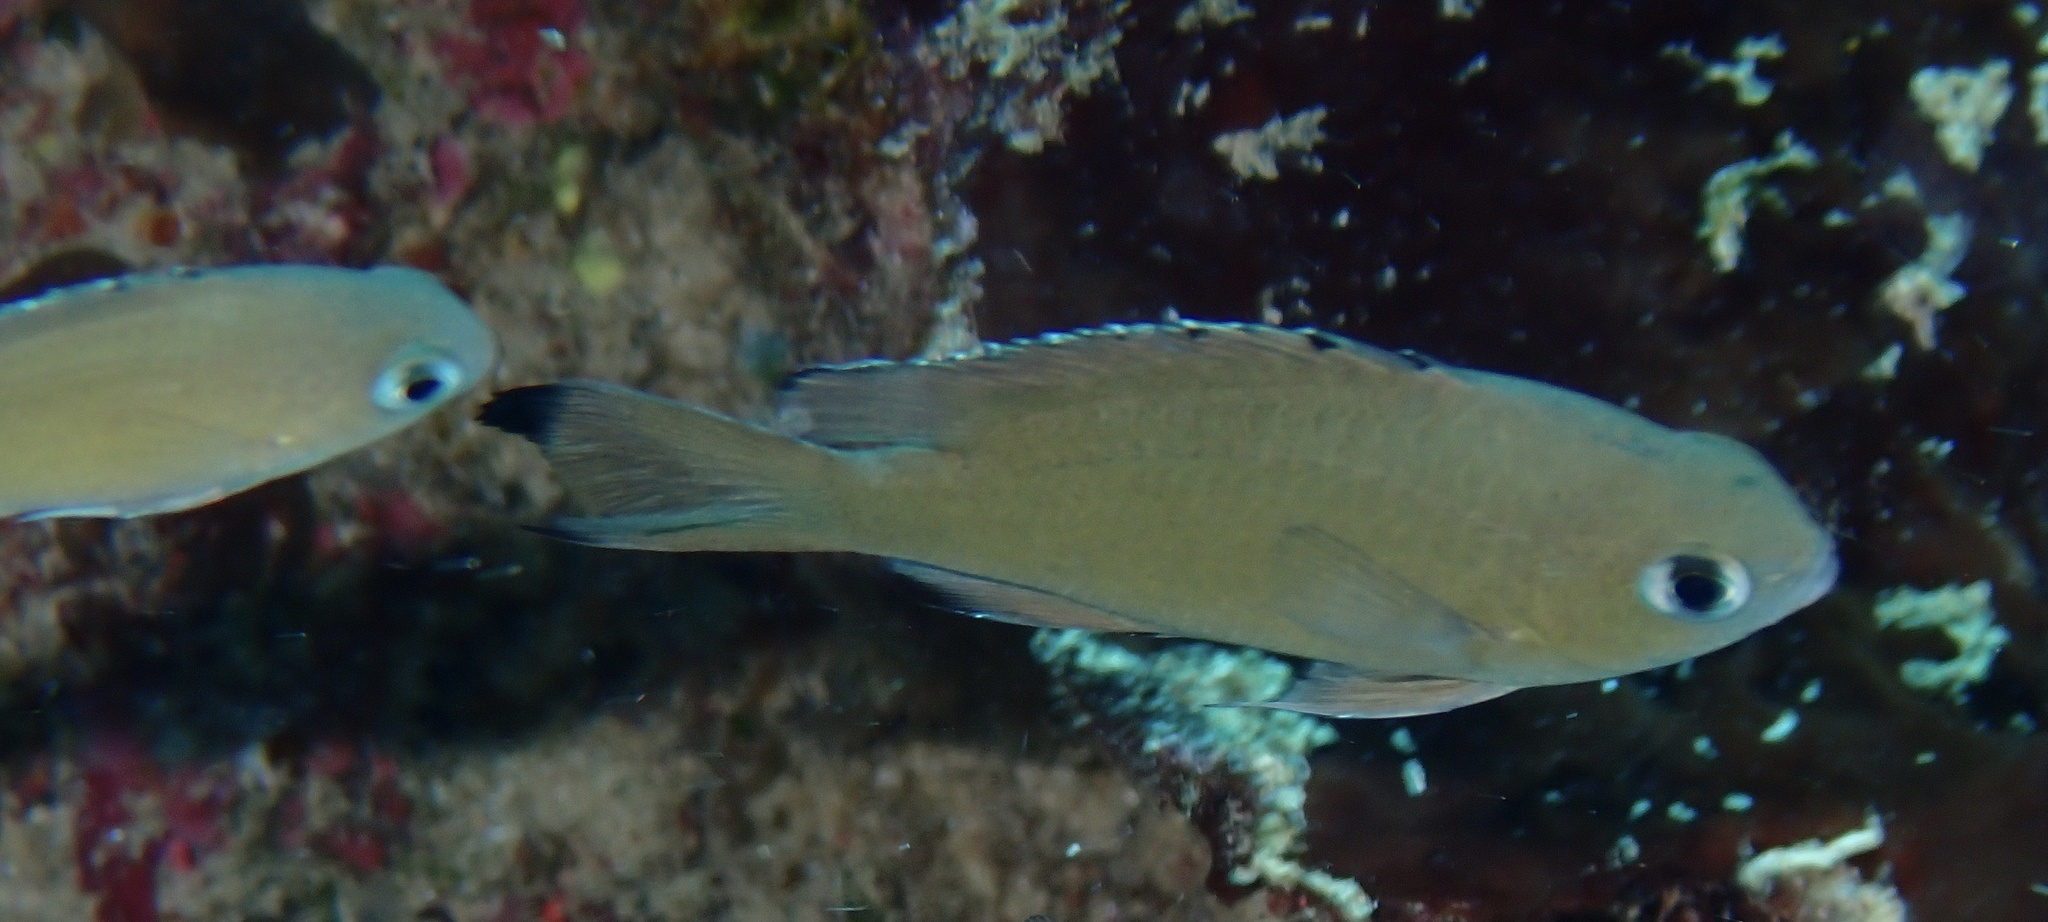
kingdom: Animalia
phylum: Chordata
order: Perciformes
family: Pomacentridae
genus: Chromis
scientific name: Chromis lepidolepis
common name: Scaly chromis
